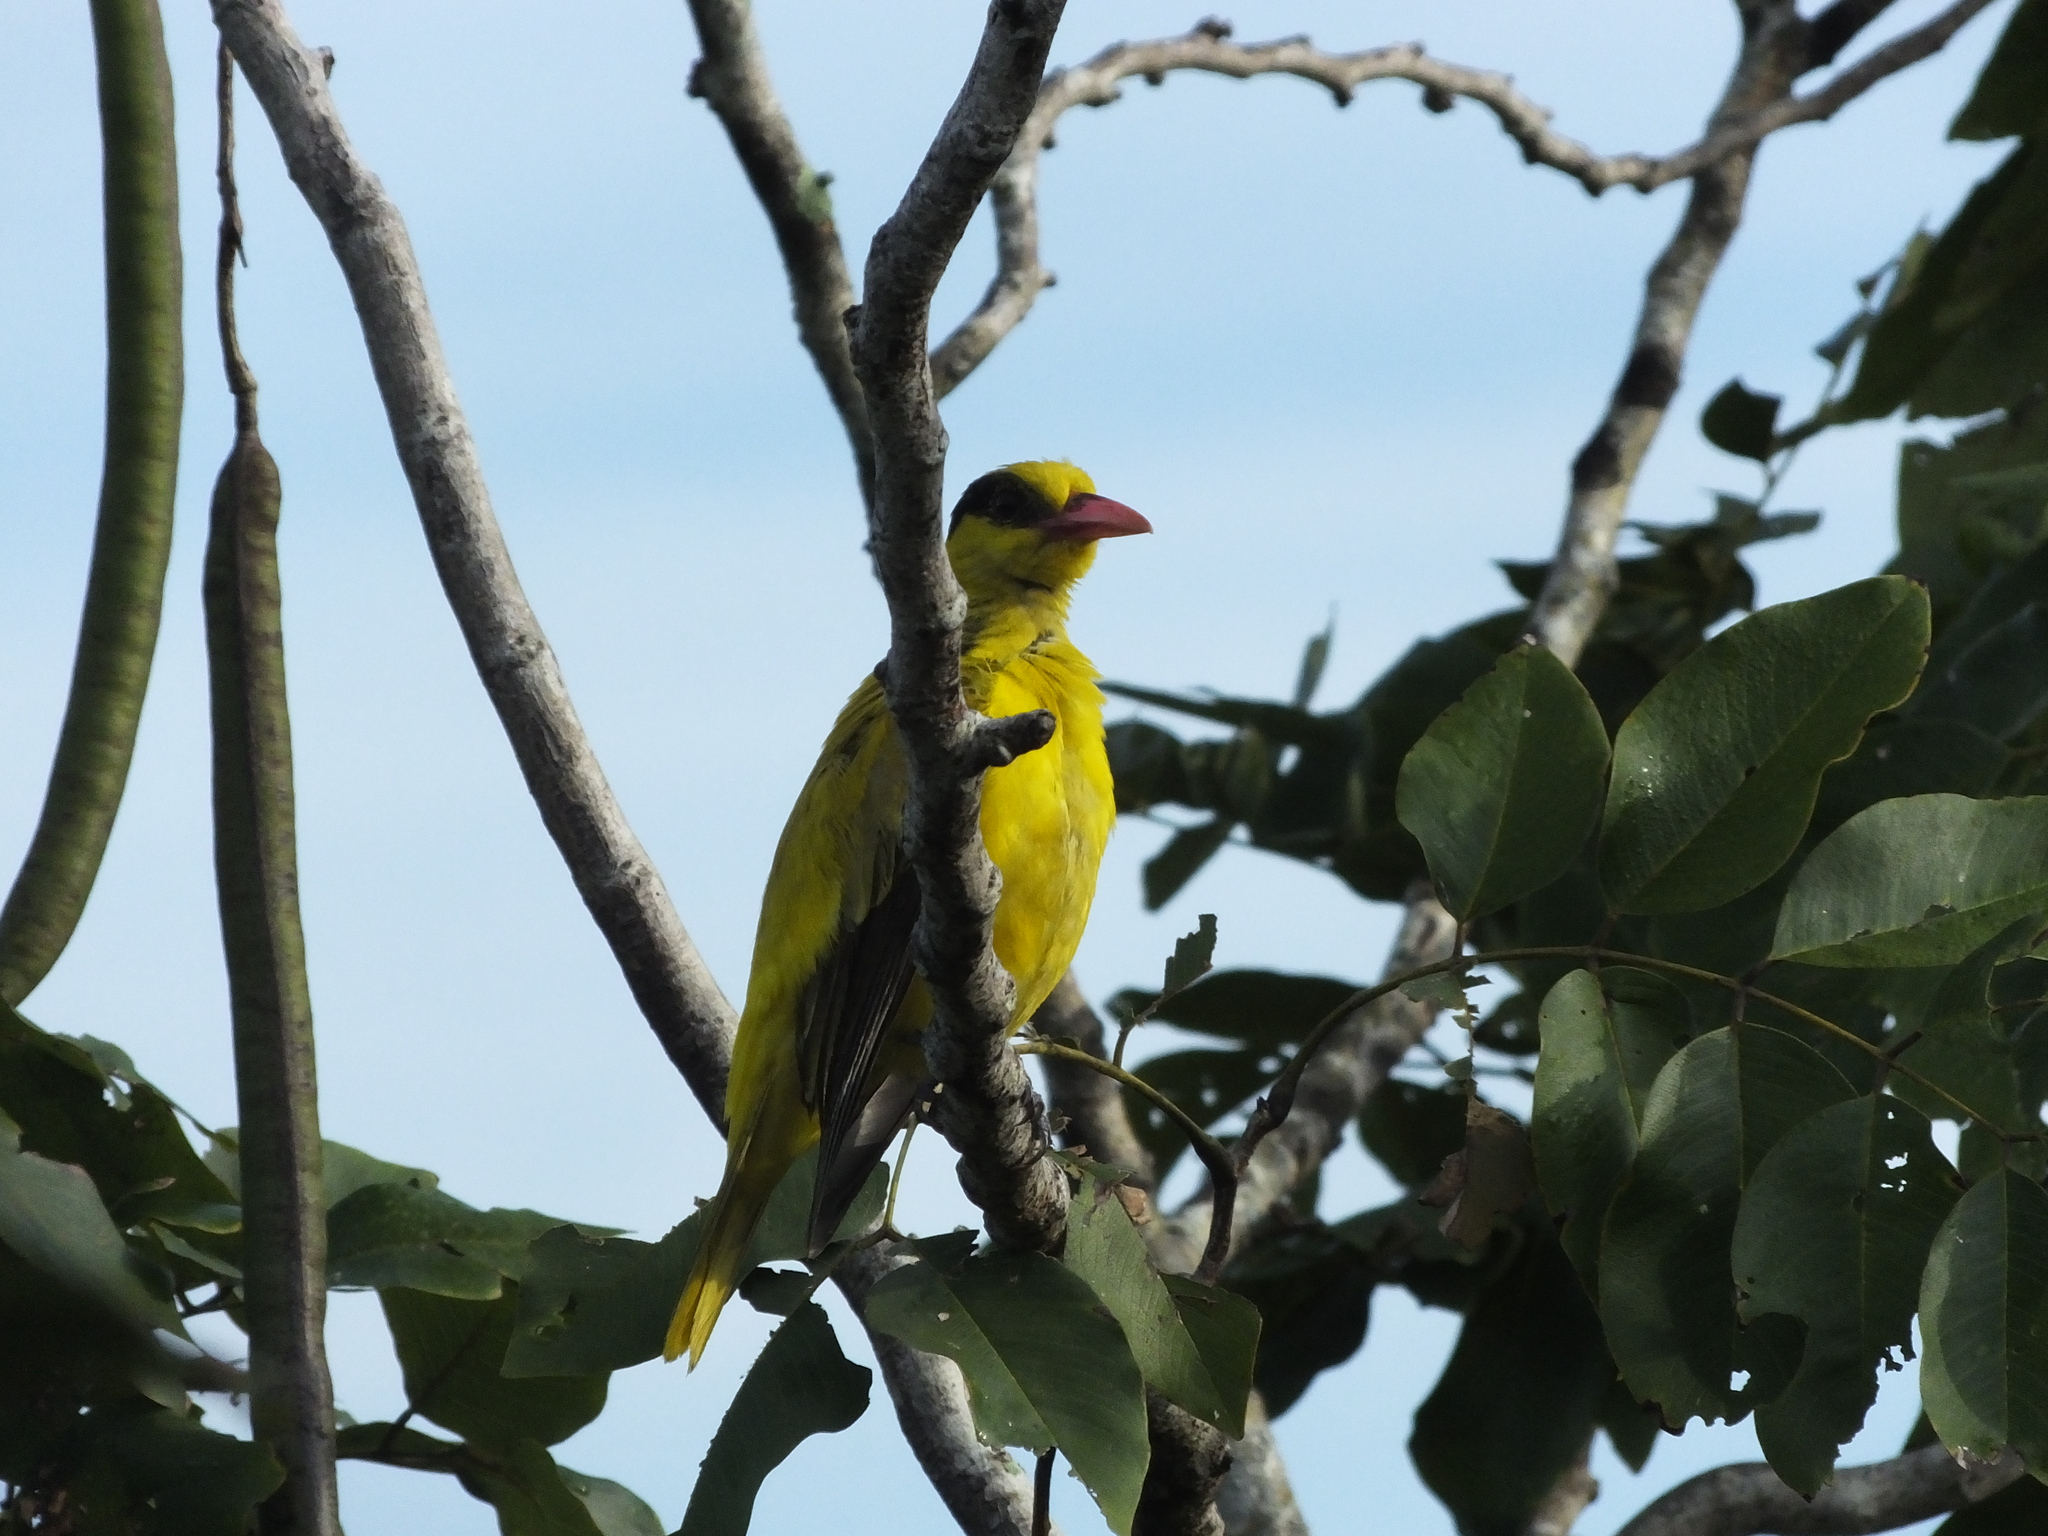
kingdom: Animalia
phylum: Chordata
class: Aves
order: Passeriformes
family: Oriolidae
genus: Oriolus
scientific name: Oriolus chinensis
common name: Black-naped oriole
